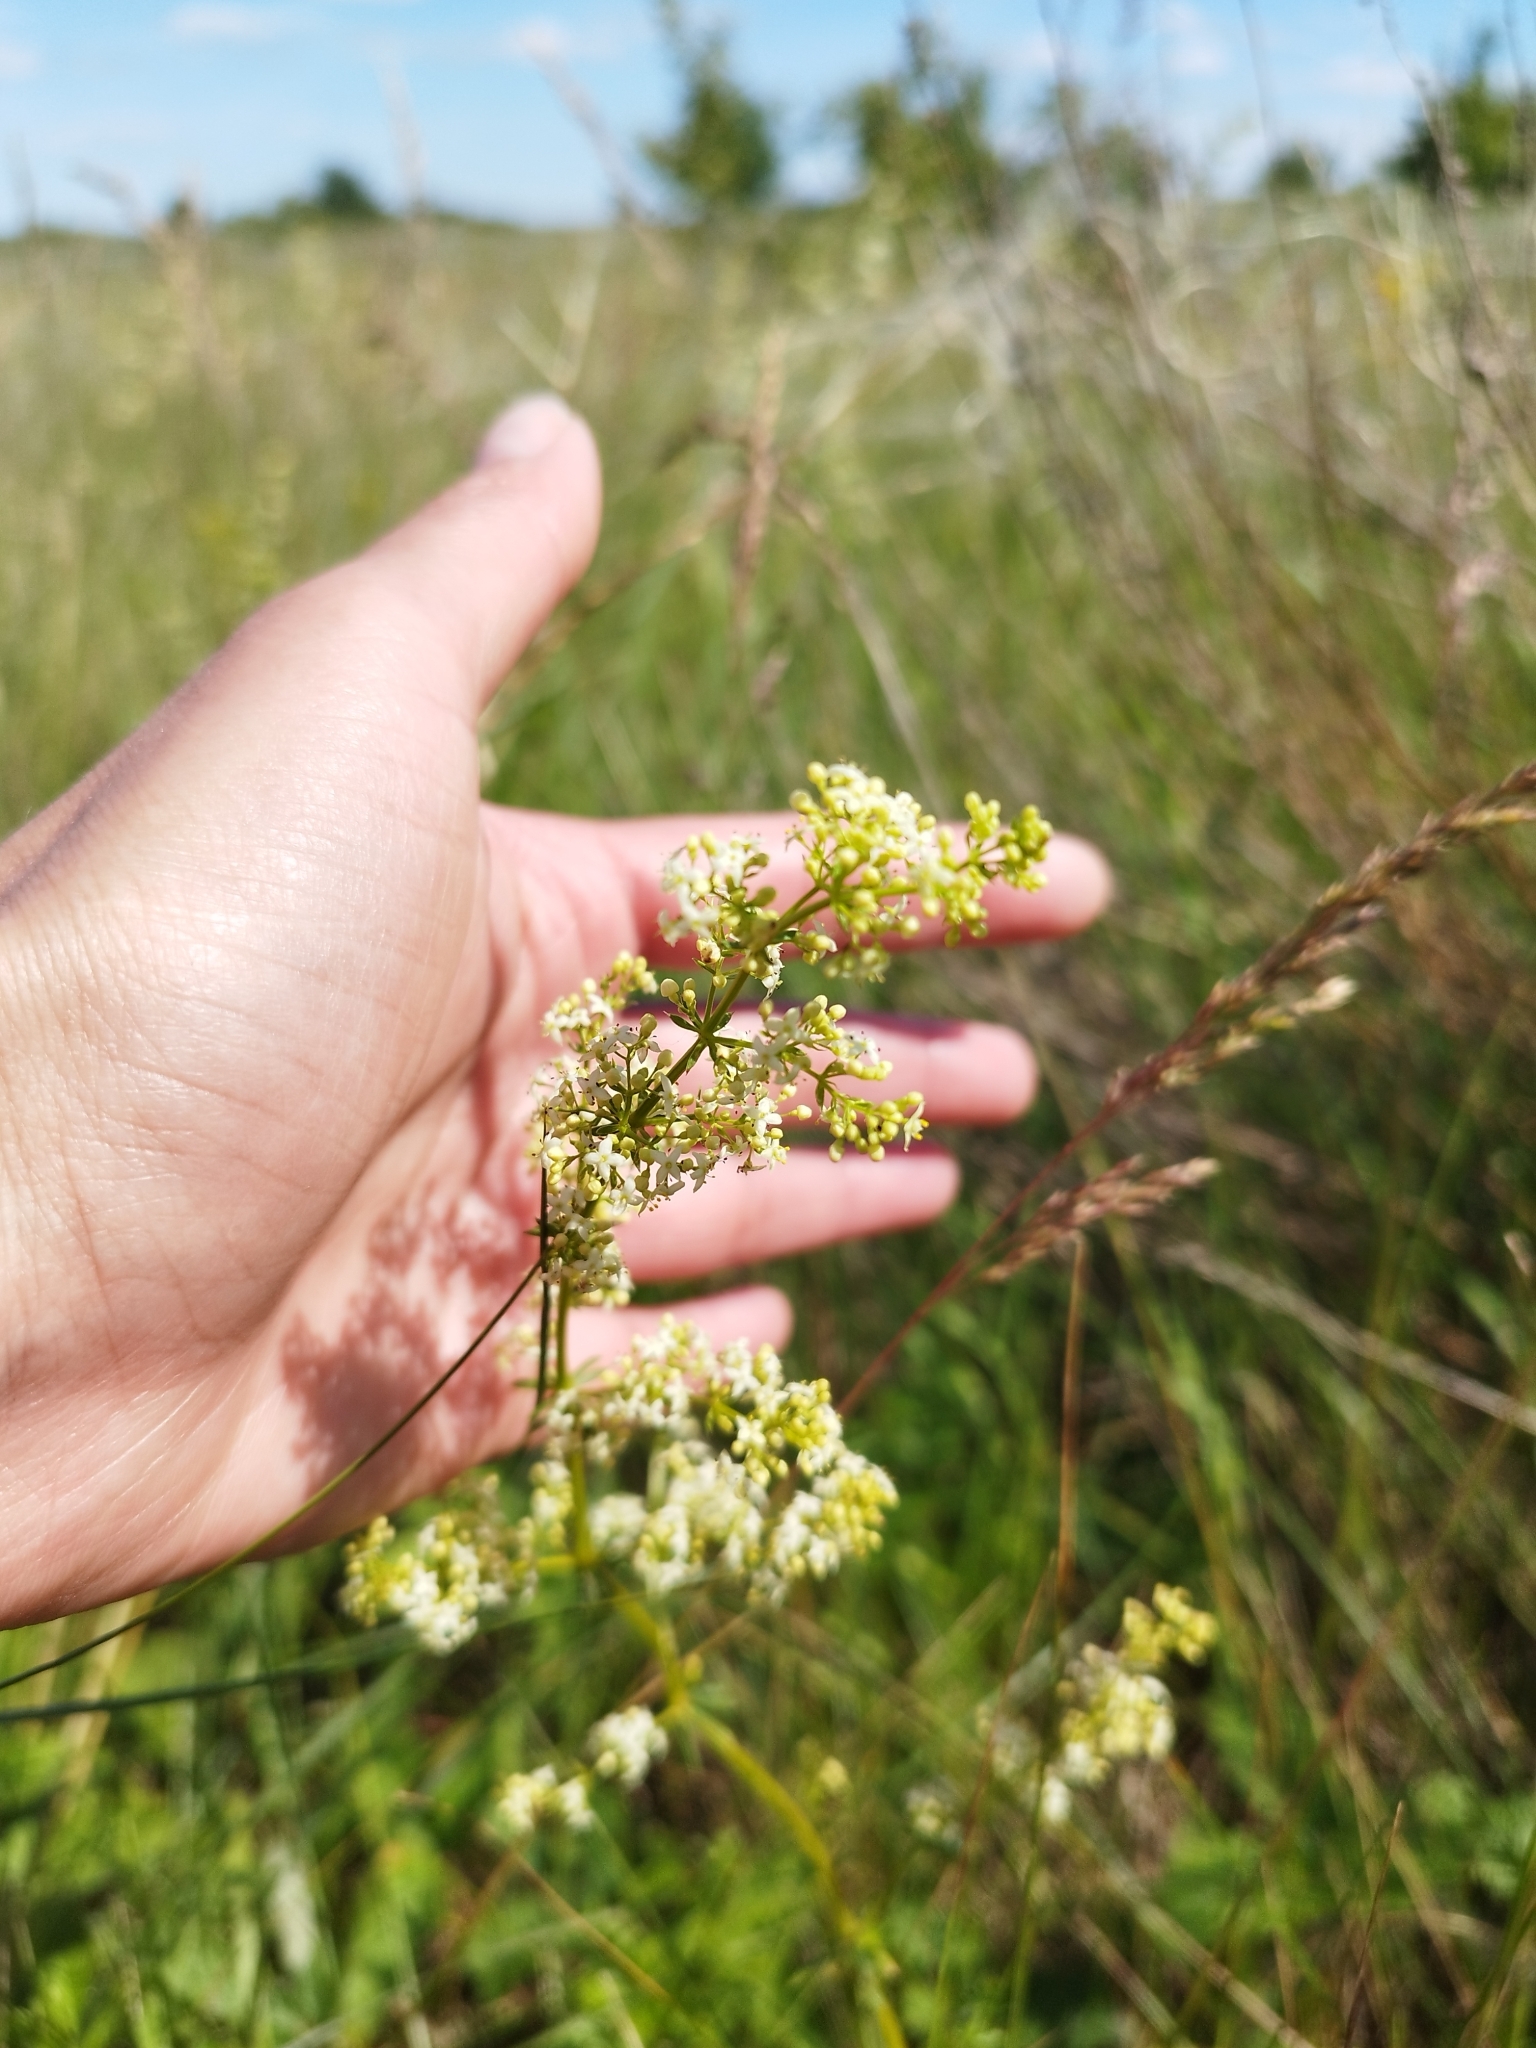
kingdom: Plantae
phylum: Tracheophyta
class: Magnoliopsida
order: Gentianales
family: Rubiaceae
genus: Galium
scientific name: Galium mollugo
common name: Hedge bedstraw
